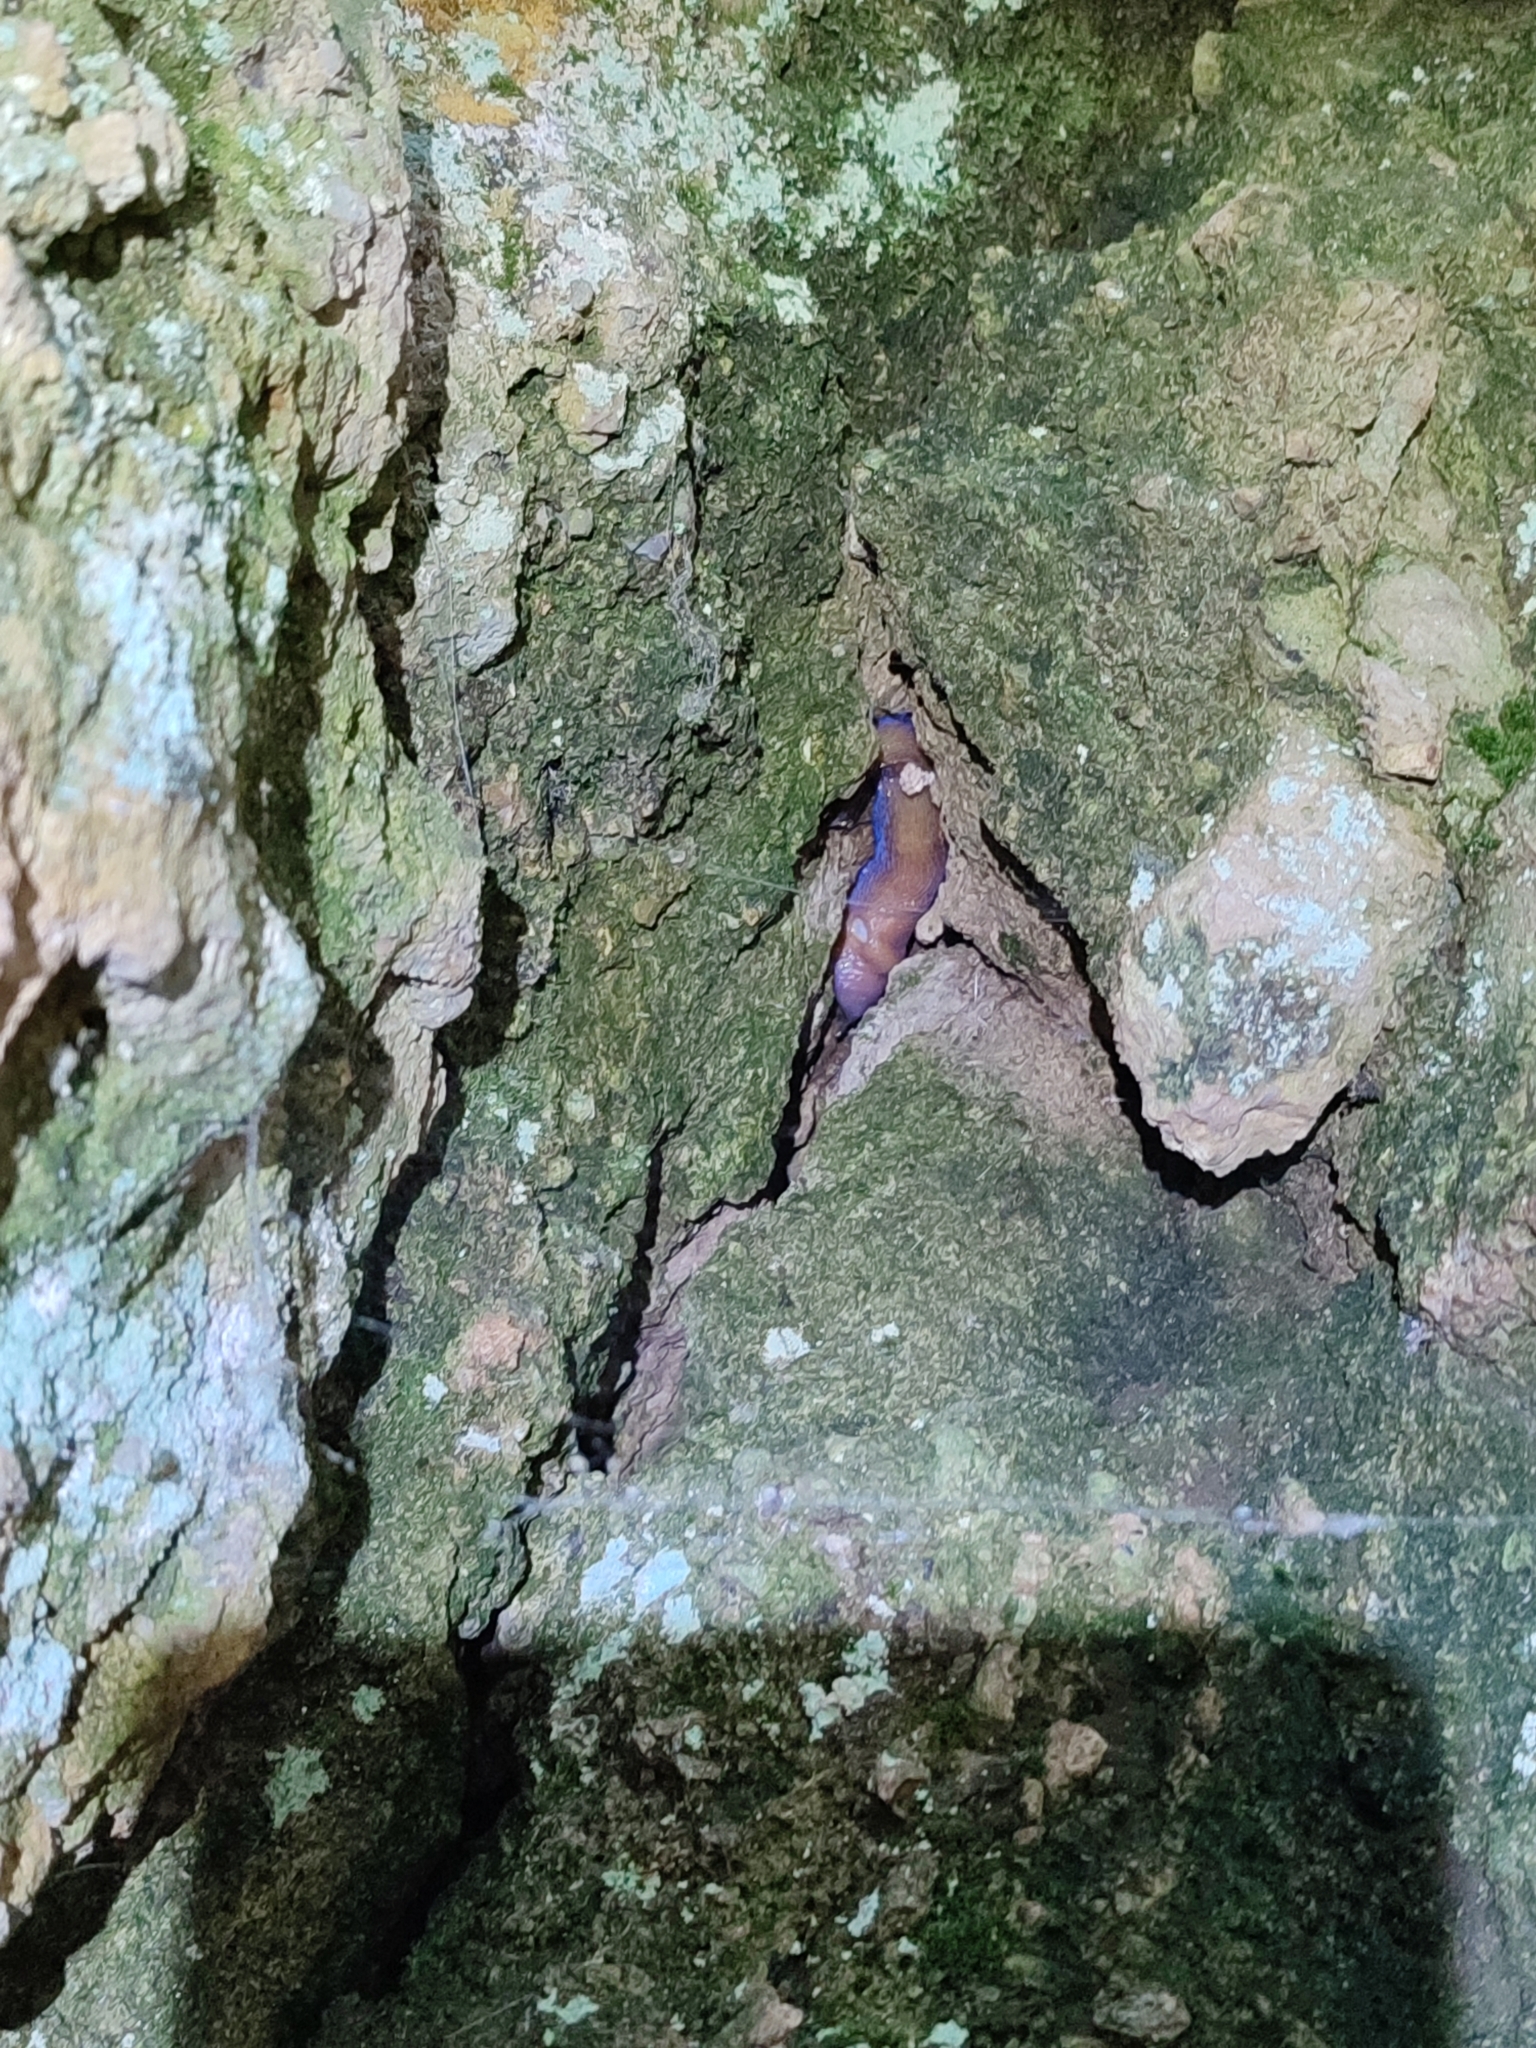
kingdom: Animalia
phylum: Mollusca
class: Gastropoda
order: Stylommatophora
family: Limacidae
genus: Bielzia
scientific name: Bielzia coerulans
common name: Carpathian blue slug
